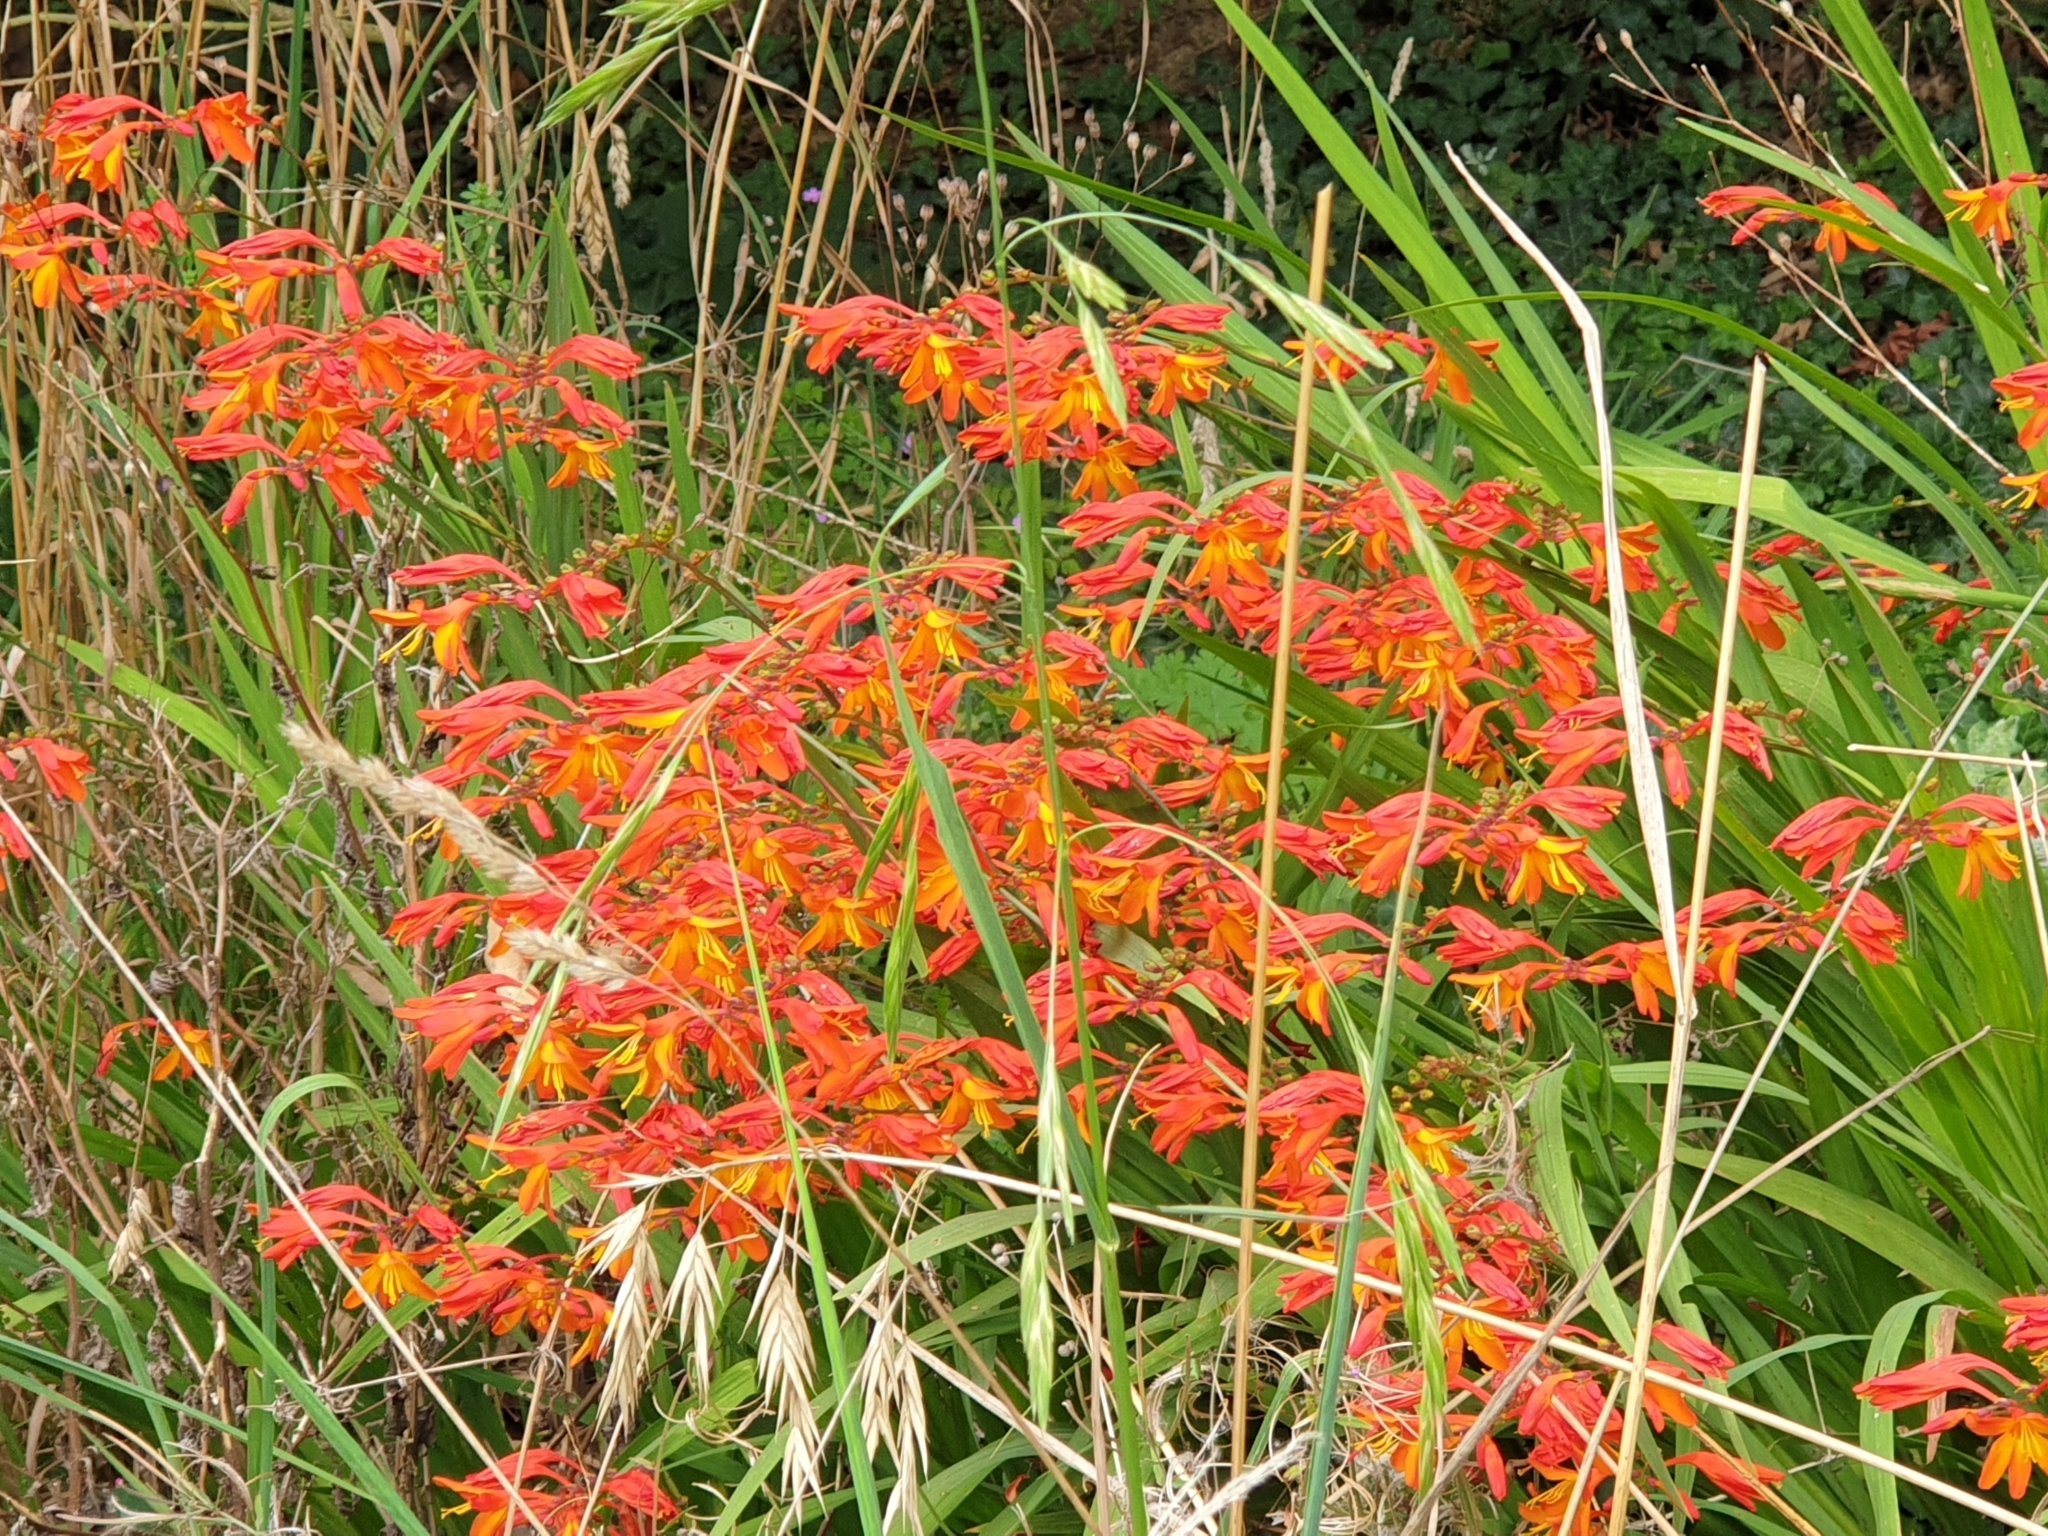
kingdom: Plantae
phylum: Tracheophyta
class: Liliopsida
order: Asparagales
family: Iridaceae
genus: Crocosmia
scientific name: Crocosmia crocosmiiflora
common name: Montbretia
